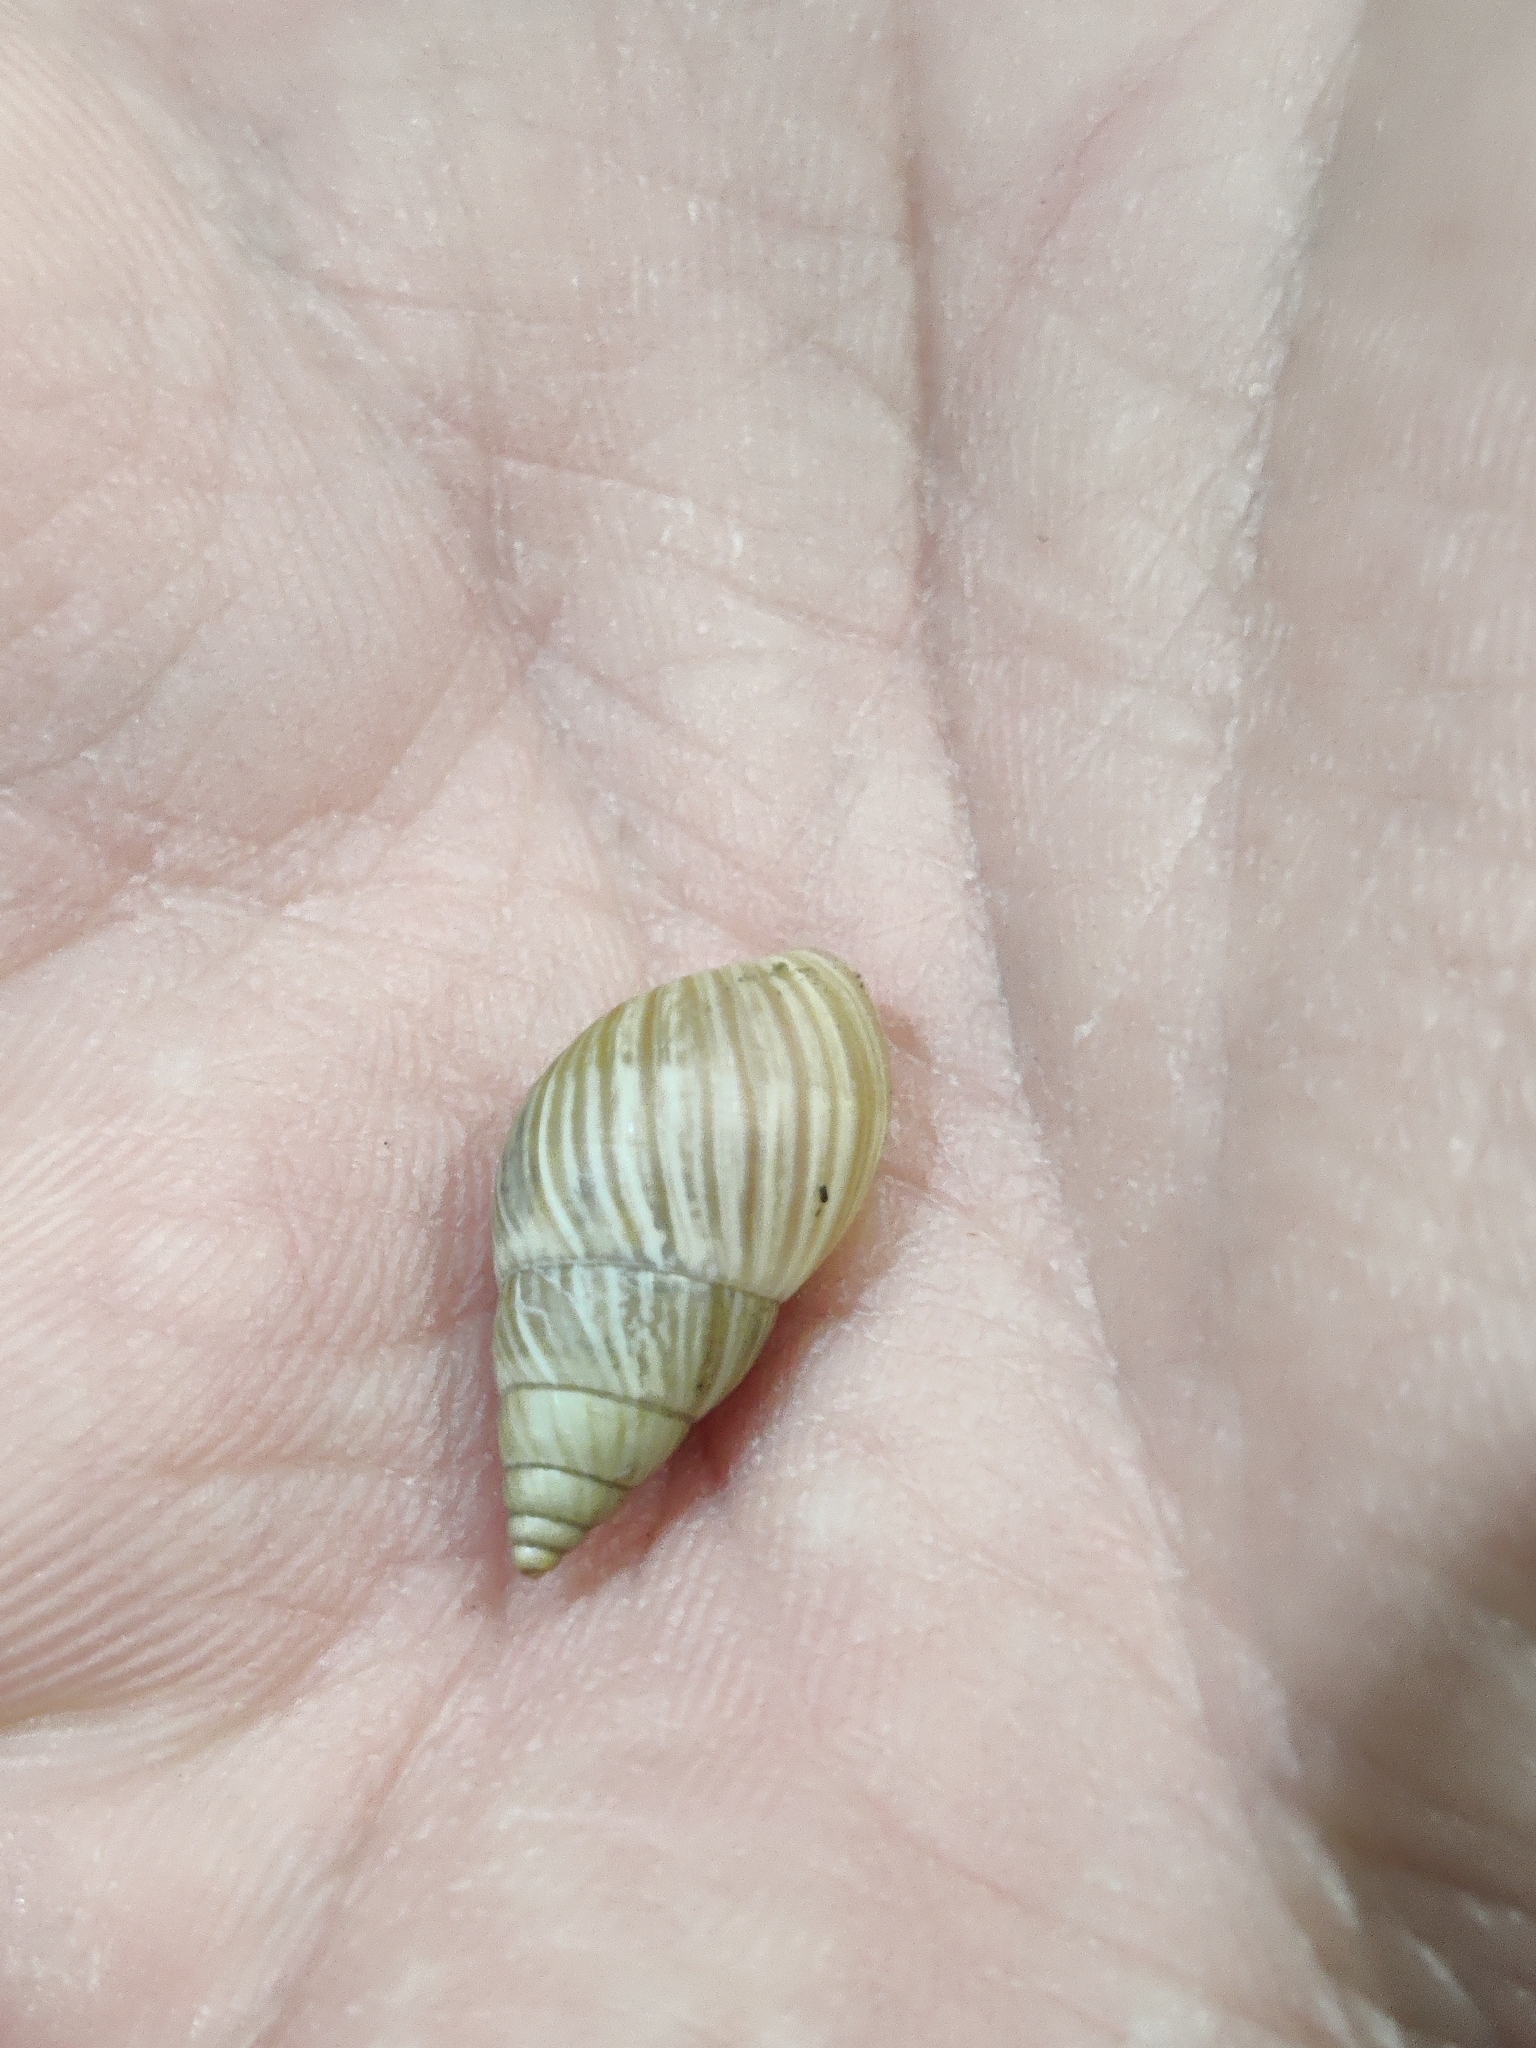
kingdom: Animalia
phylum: Mollusca
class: Gastropoda
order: Stylommatophora
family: Bulimulidae
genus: Bulimulus
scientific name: Bulimulus bonariensis
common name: Snail
